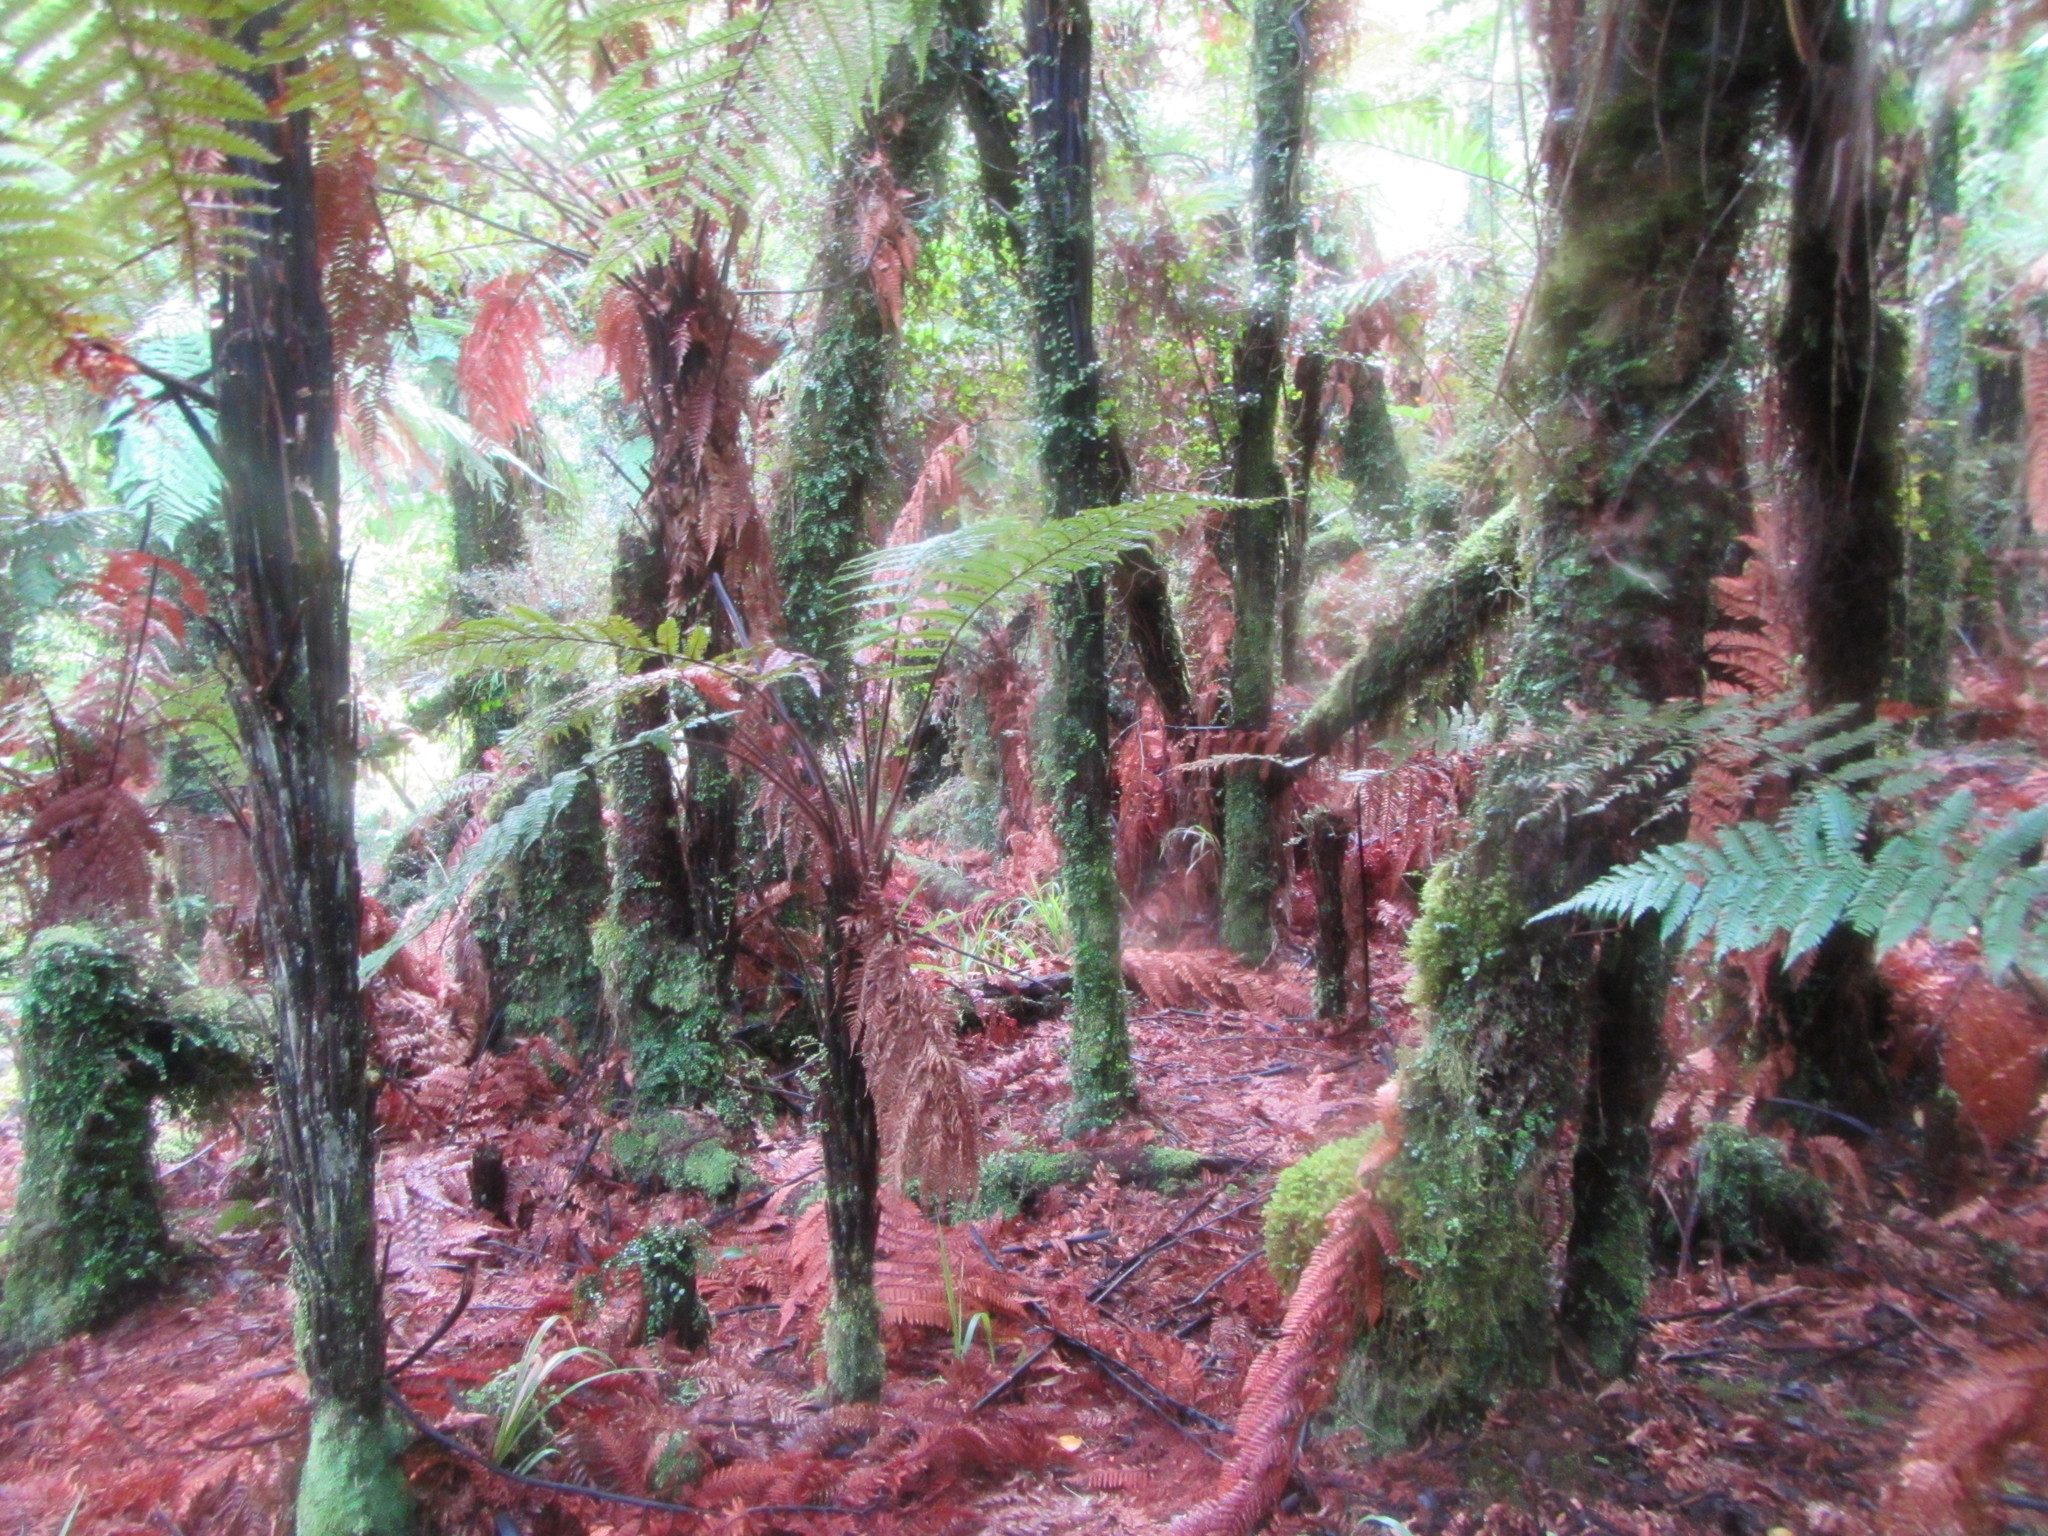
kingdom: Plantae
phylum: Tracheophyta
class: Polypodiopsida
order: Cyatheales
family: Dicksoniaceae
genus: Dicksonia
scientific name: Dicksonia squarrosa
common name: Hard treefern
